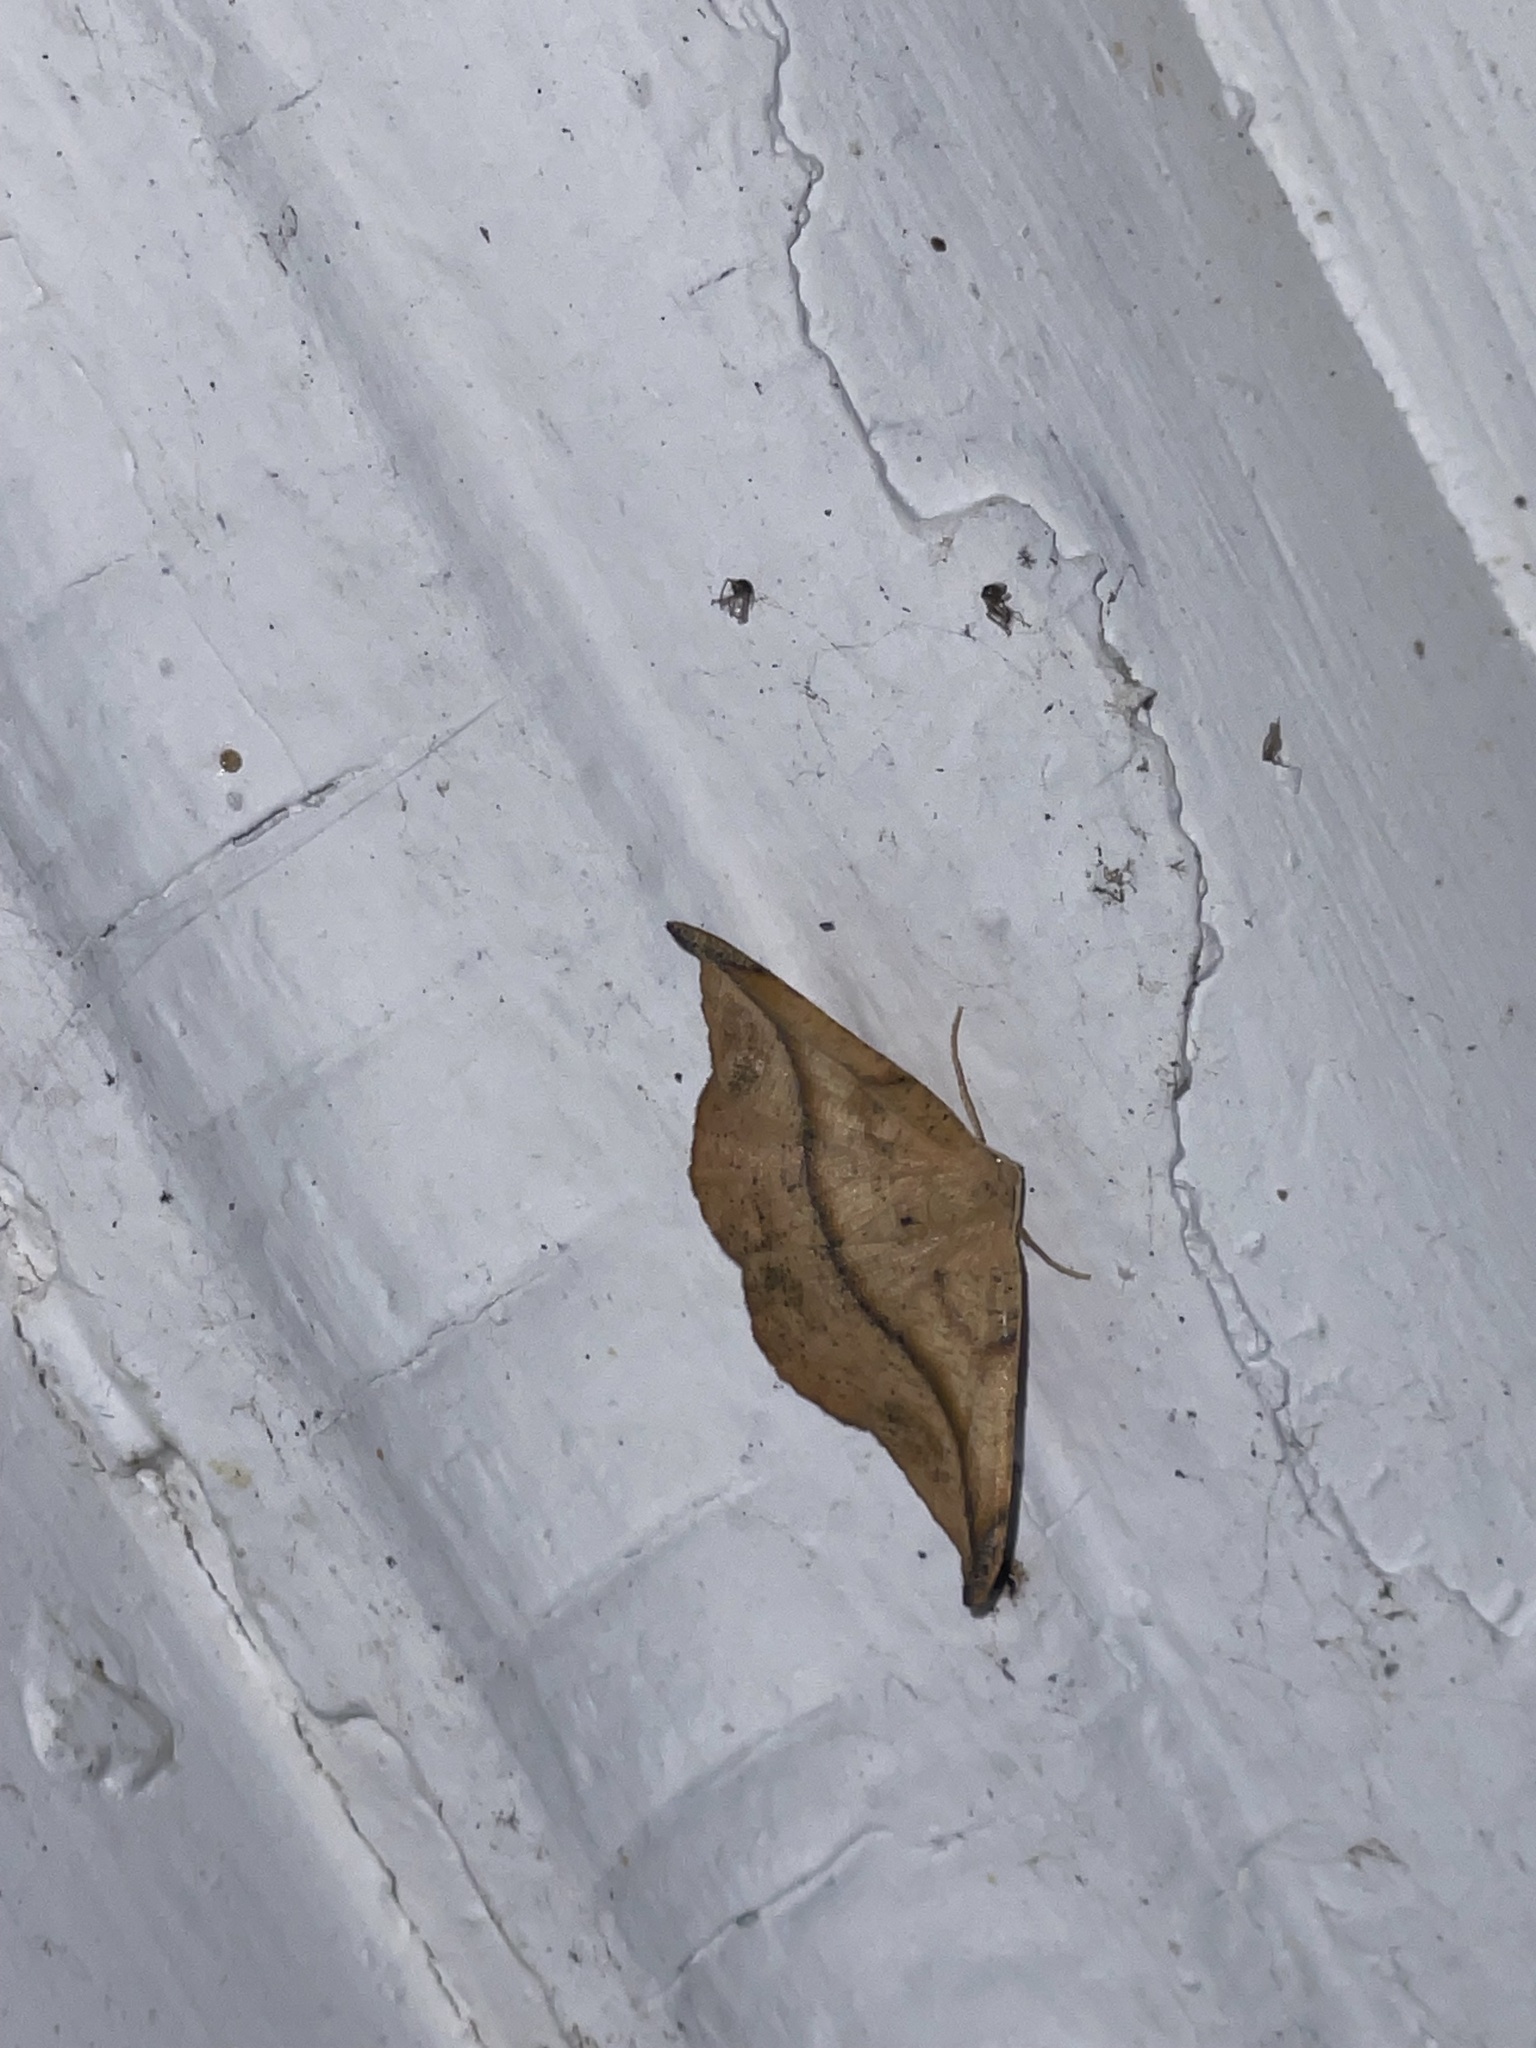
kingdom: Animalia
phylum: Arthropoda
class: Insecta
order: Lepidoptera
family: Geometridae
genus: Patalene
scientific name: Patalene olyzonaria
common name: Juniper geometer moth
